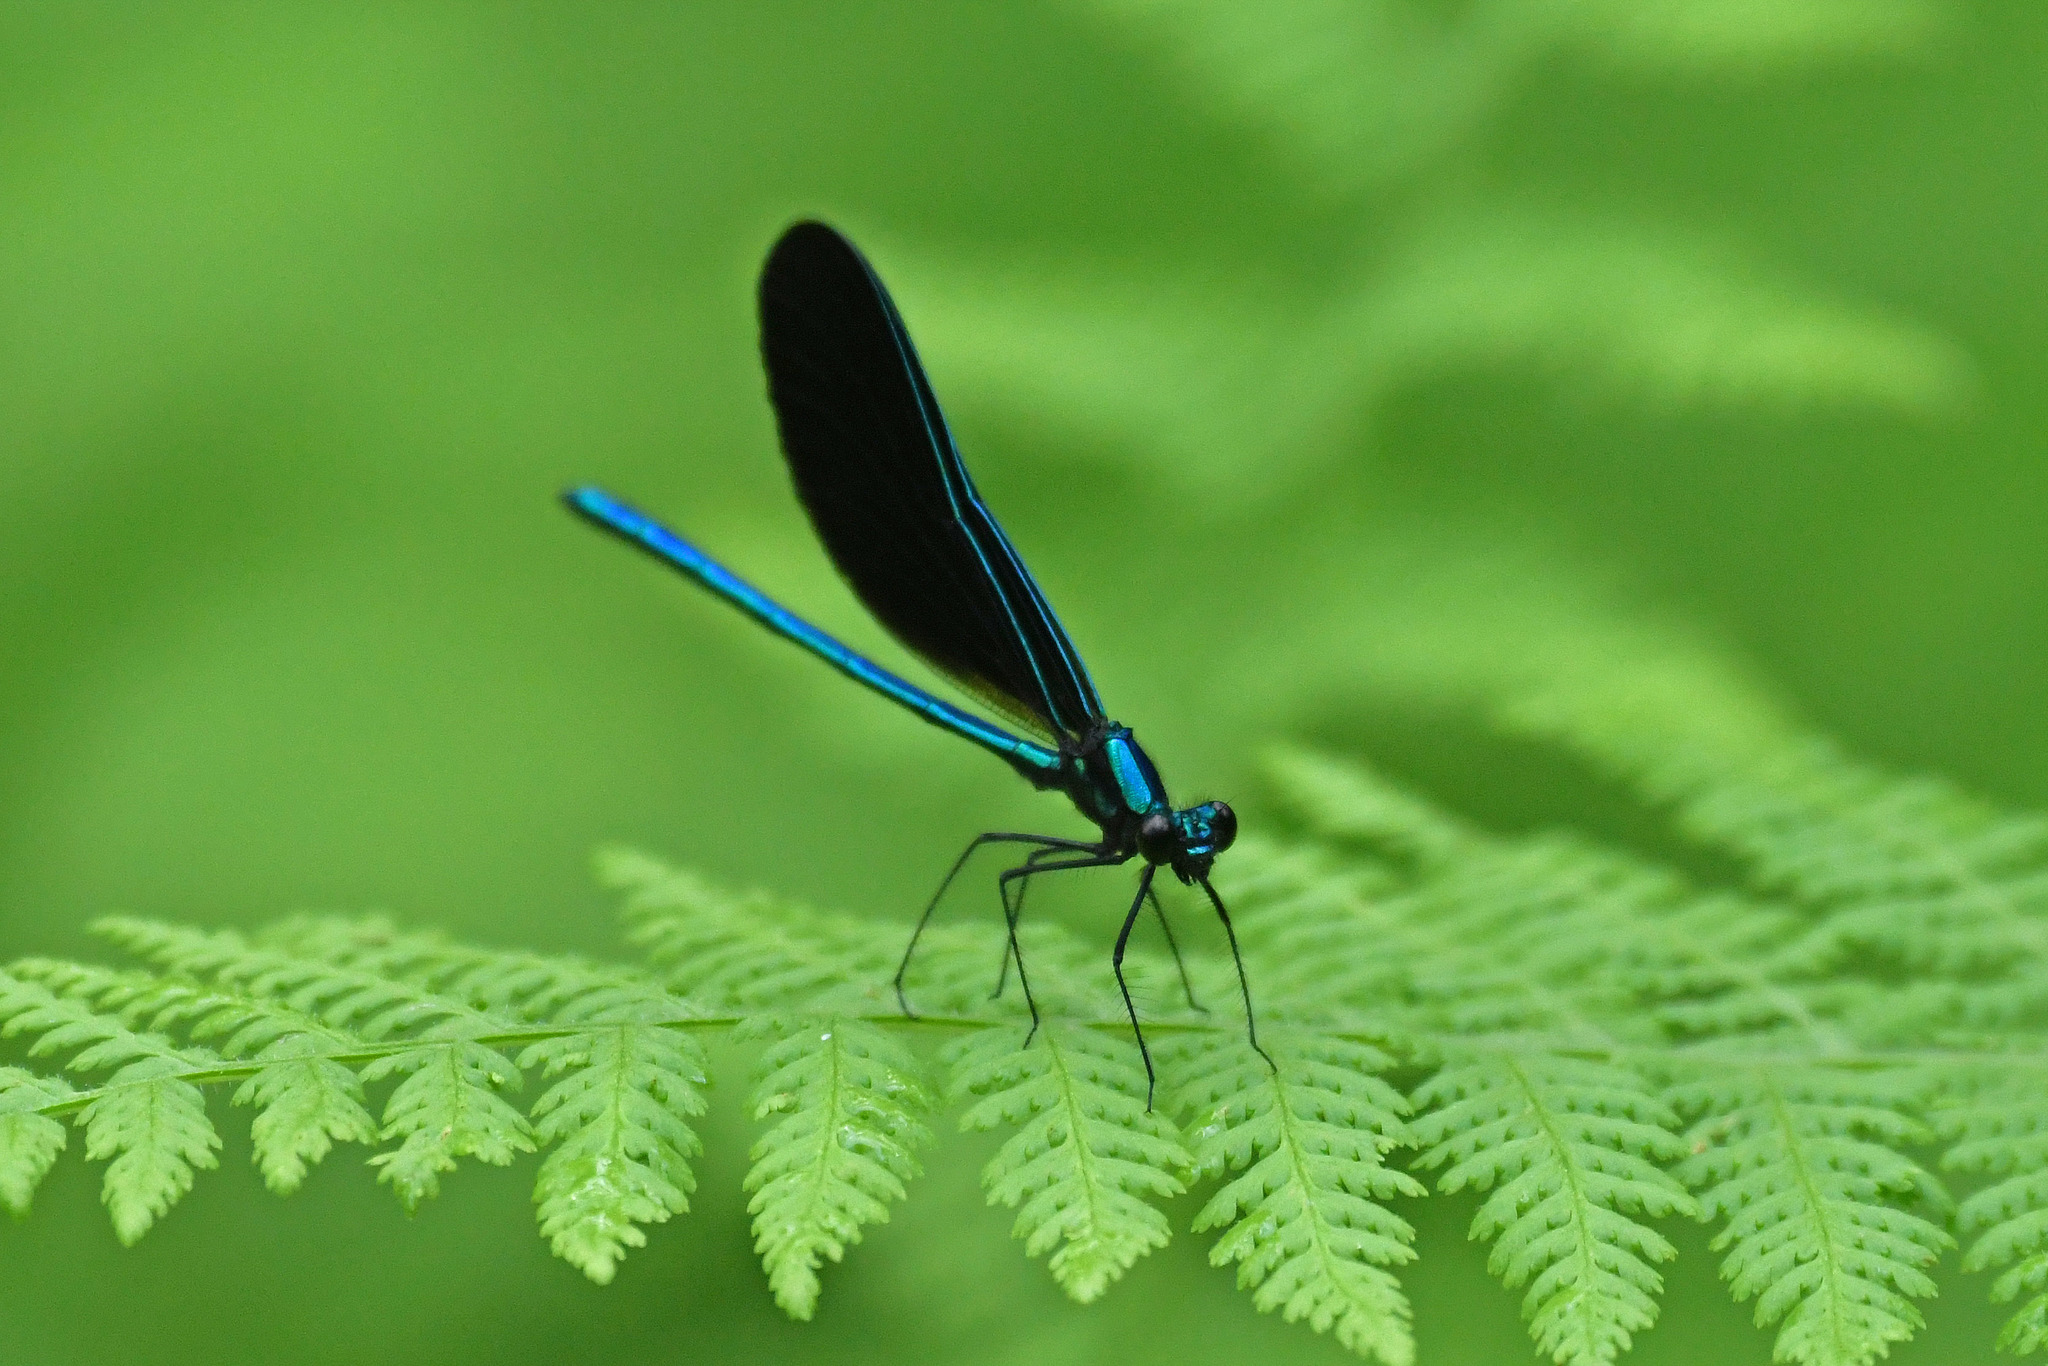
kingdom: Animalia
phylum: Arthropoda
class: Insecta
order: Odonata
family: Calopterygidae
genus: Calopteryx
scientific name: Calopteryx maculata
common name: Ebony jewelwing
